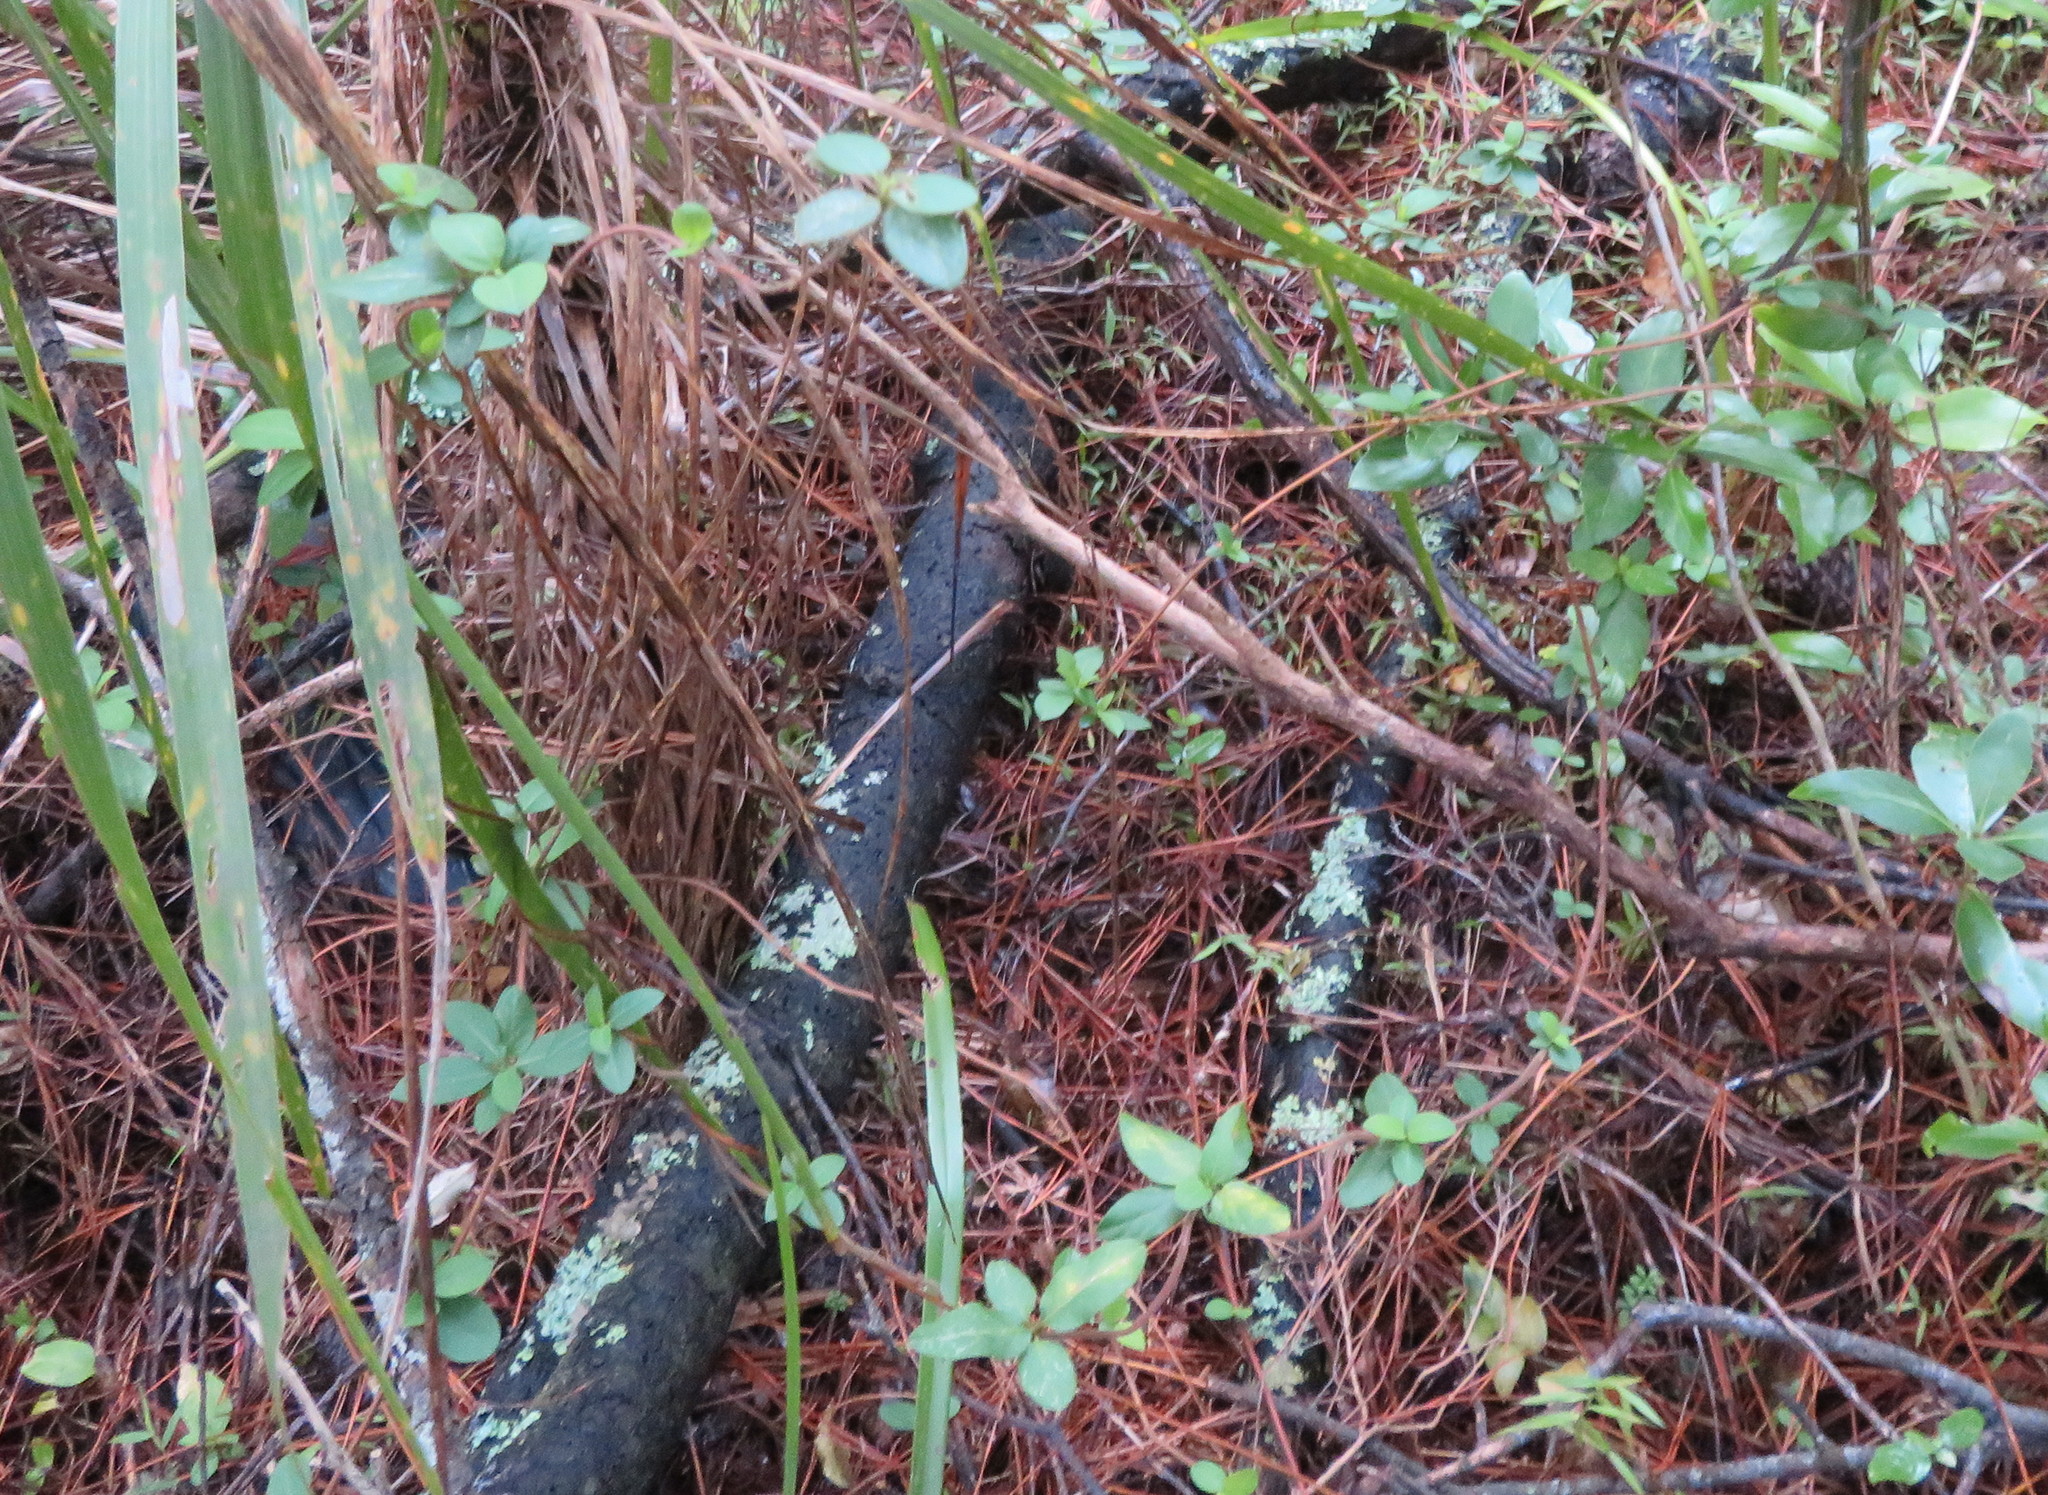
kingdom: Plantae
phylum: Tracheophyta
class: Magnoliopsida
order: Dipsacales
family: Caprifoliaceae
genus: Lonicera
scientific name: Lonicera japonica
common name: Japanese honeysuckle
